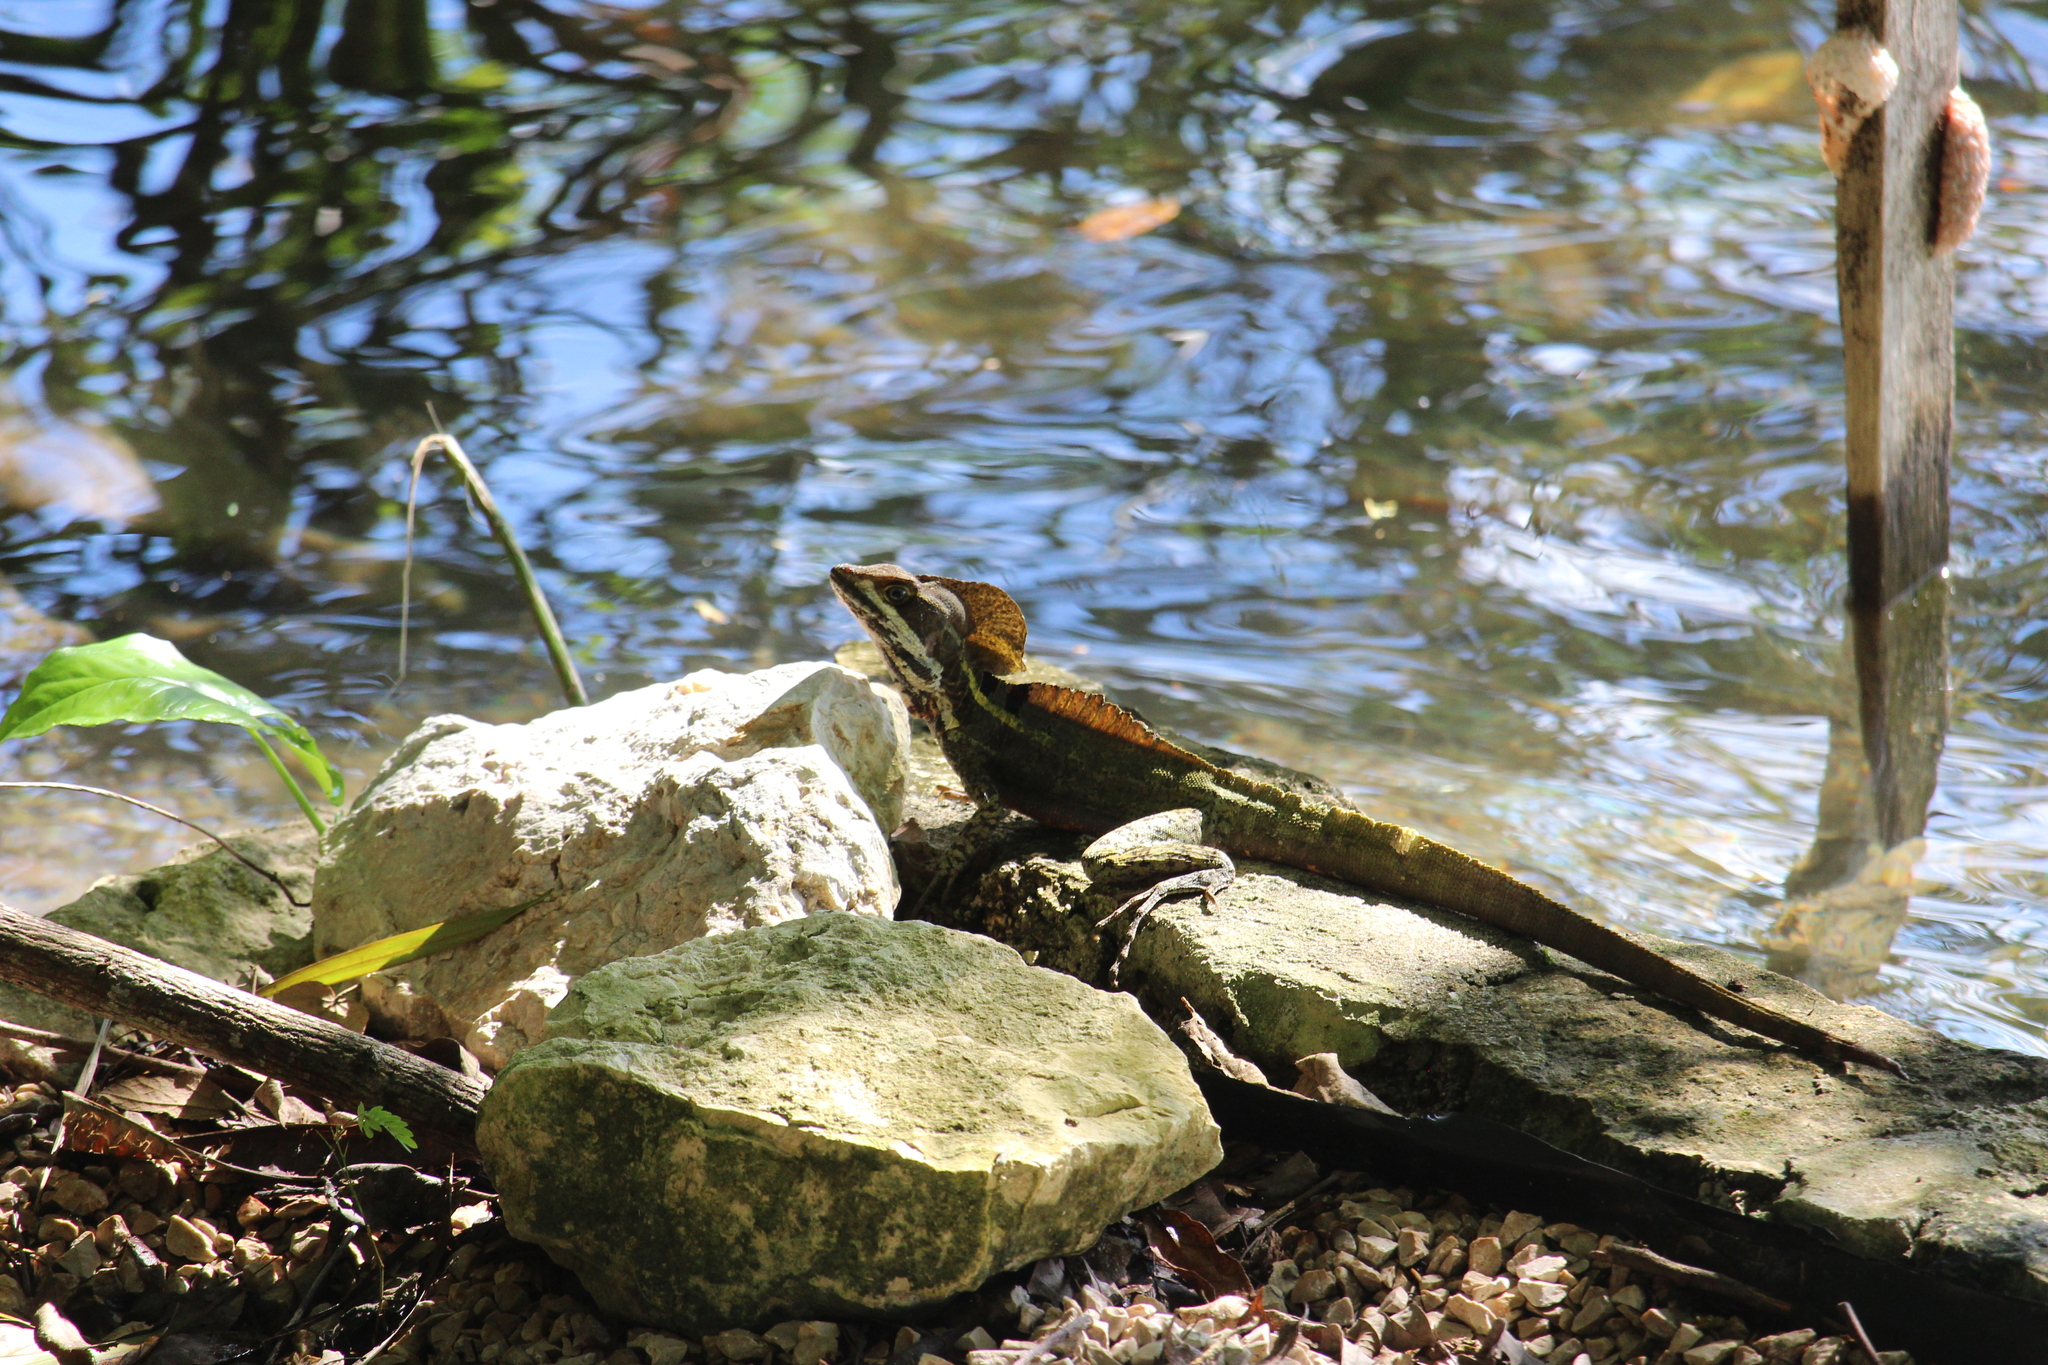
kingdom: Animalia
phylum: Chordata
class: Squamata
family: Corytophanidae
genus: Basiliscus
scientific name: Basiliscus vittatus
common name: Brown basilisk
